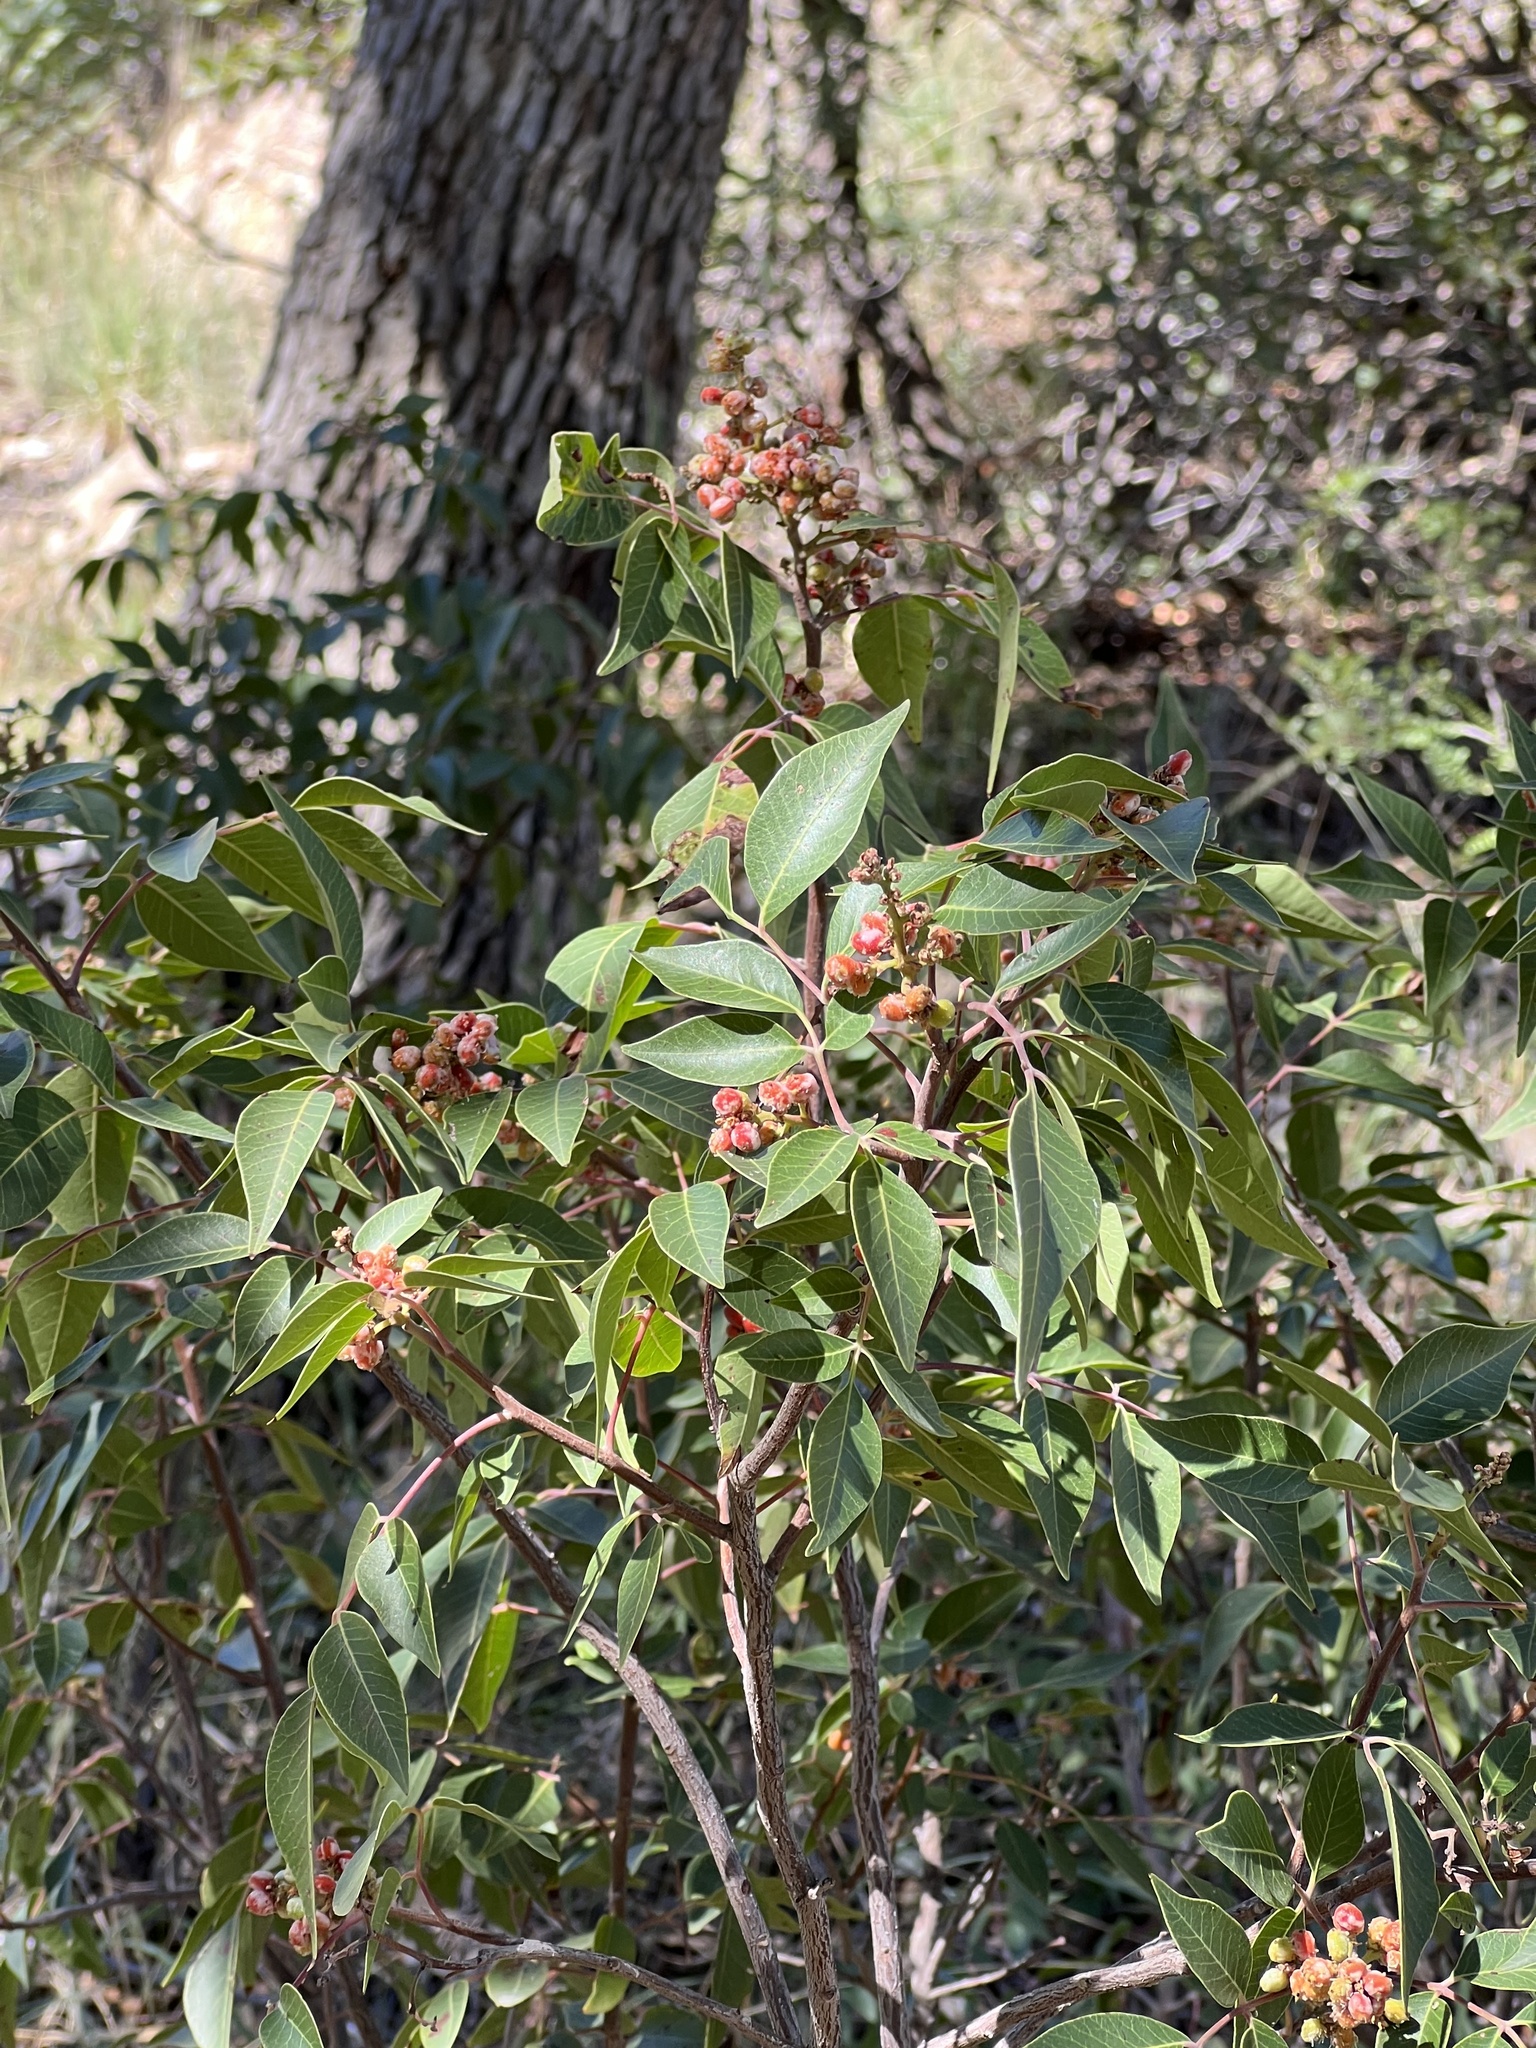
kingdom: Plantae
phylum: Tracheophyta
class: Magnoliopsida
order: Sapindales
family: Anacardiaceae
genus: Rhus
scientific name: Rhus virens
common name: Evergreen sumac
